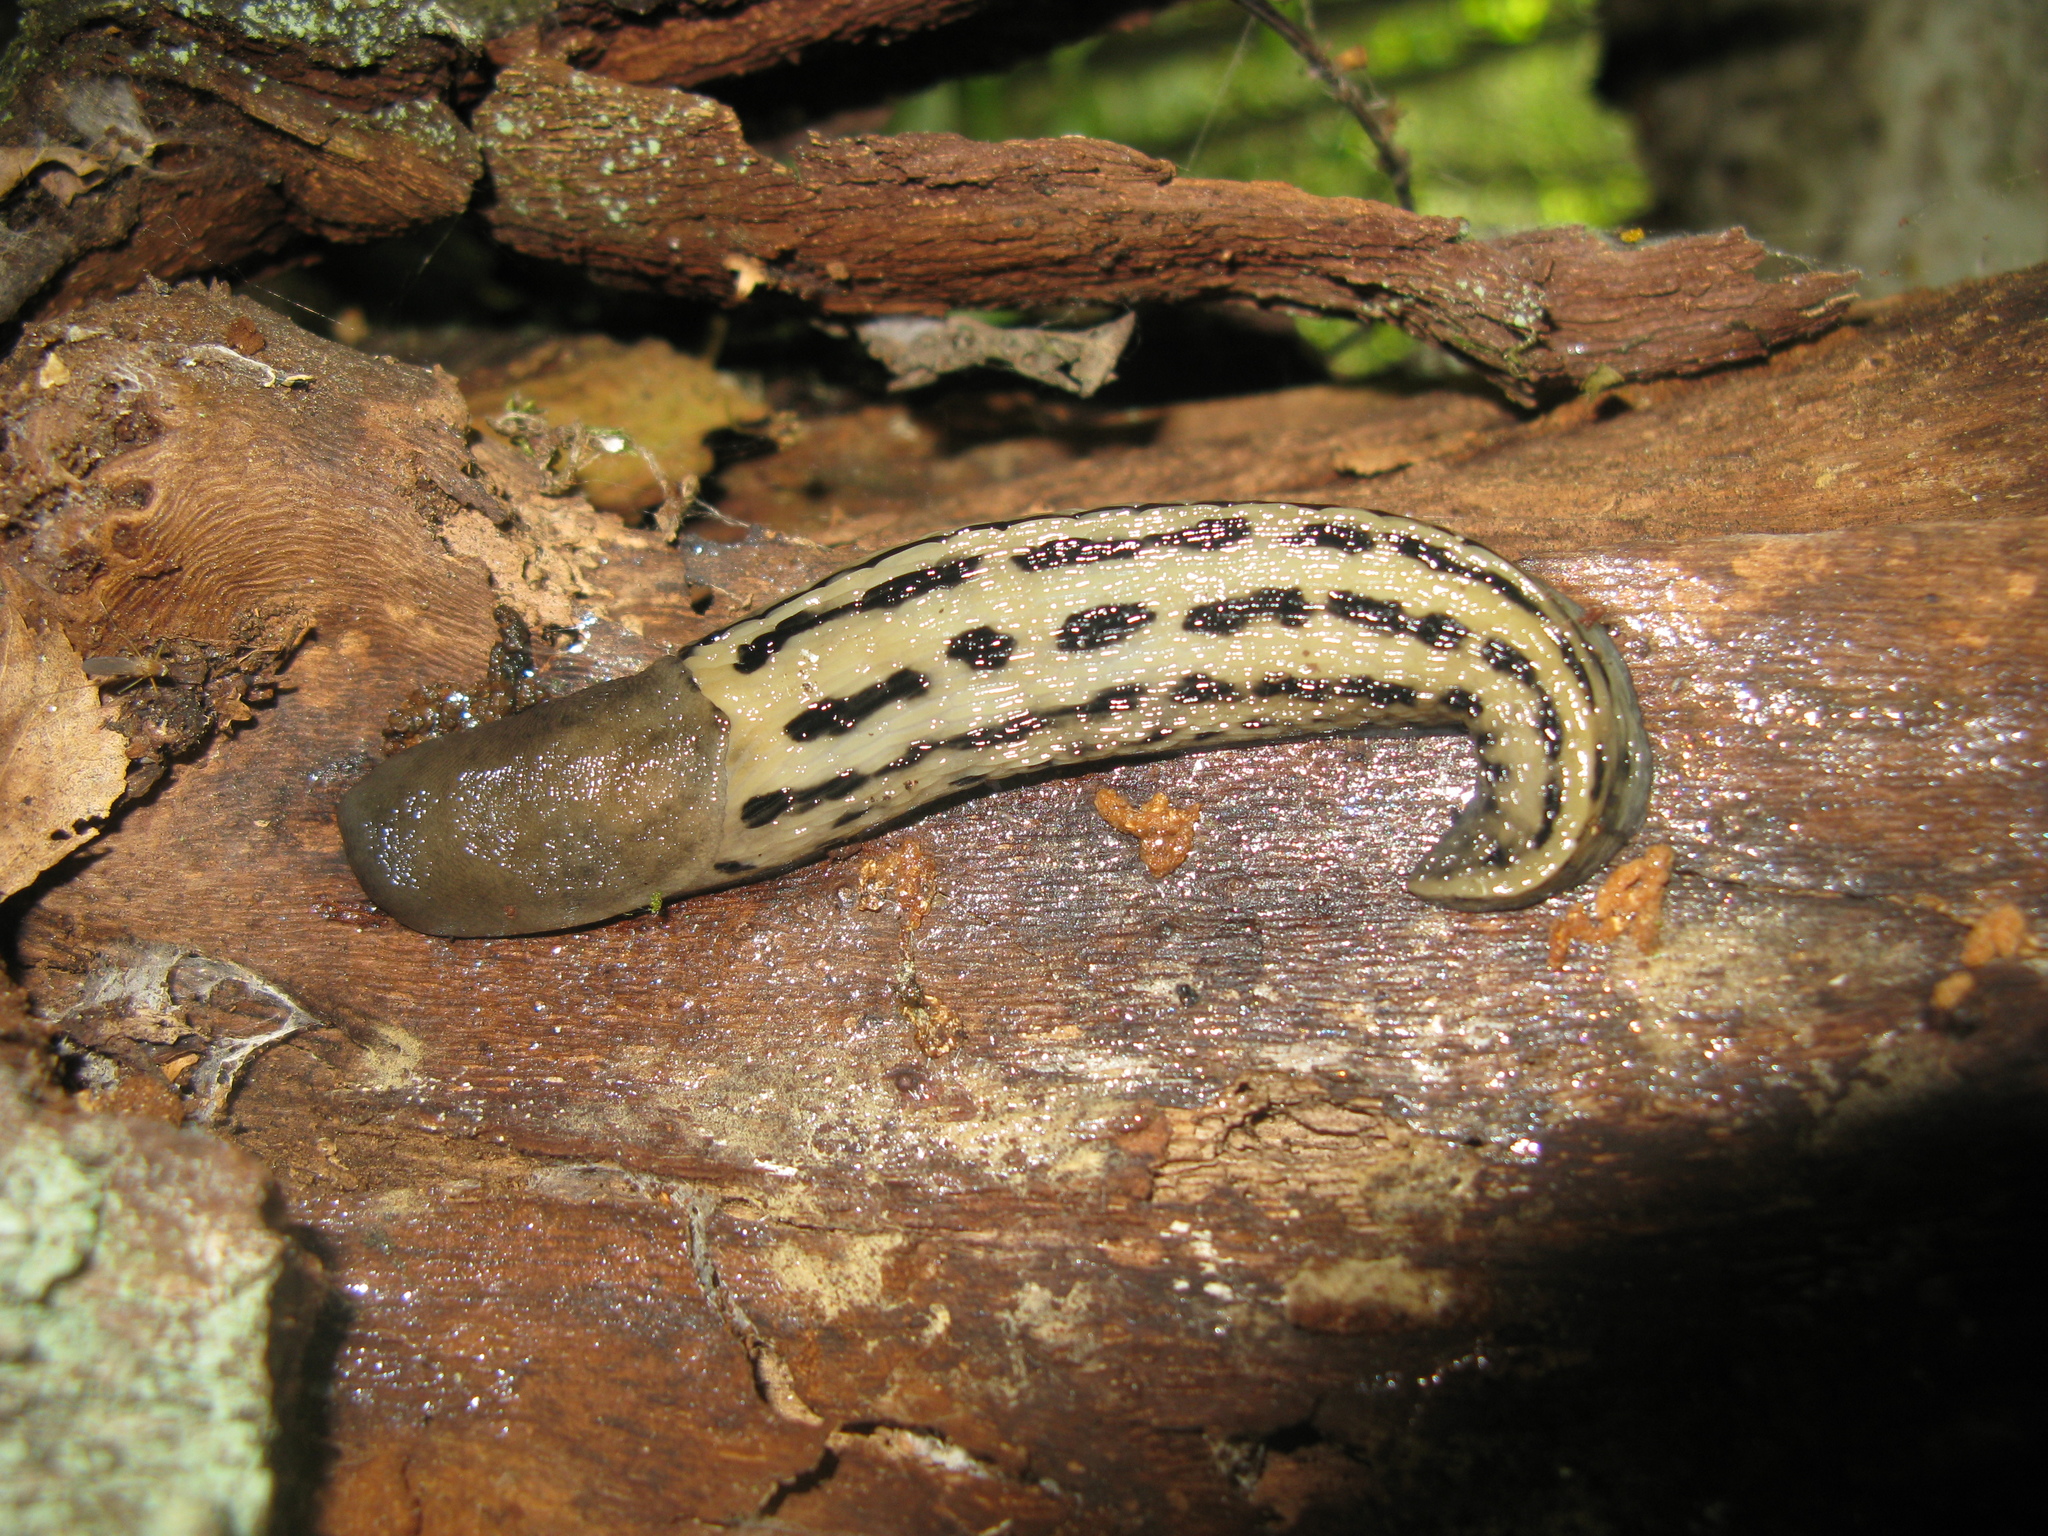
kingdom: Animalia
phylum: Mollusca
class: Gastropoda
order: Stylommatophora
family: Limacidae
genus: Limax
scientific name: Limax cinereoniger
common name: Ash-black slug
